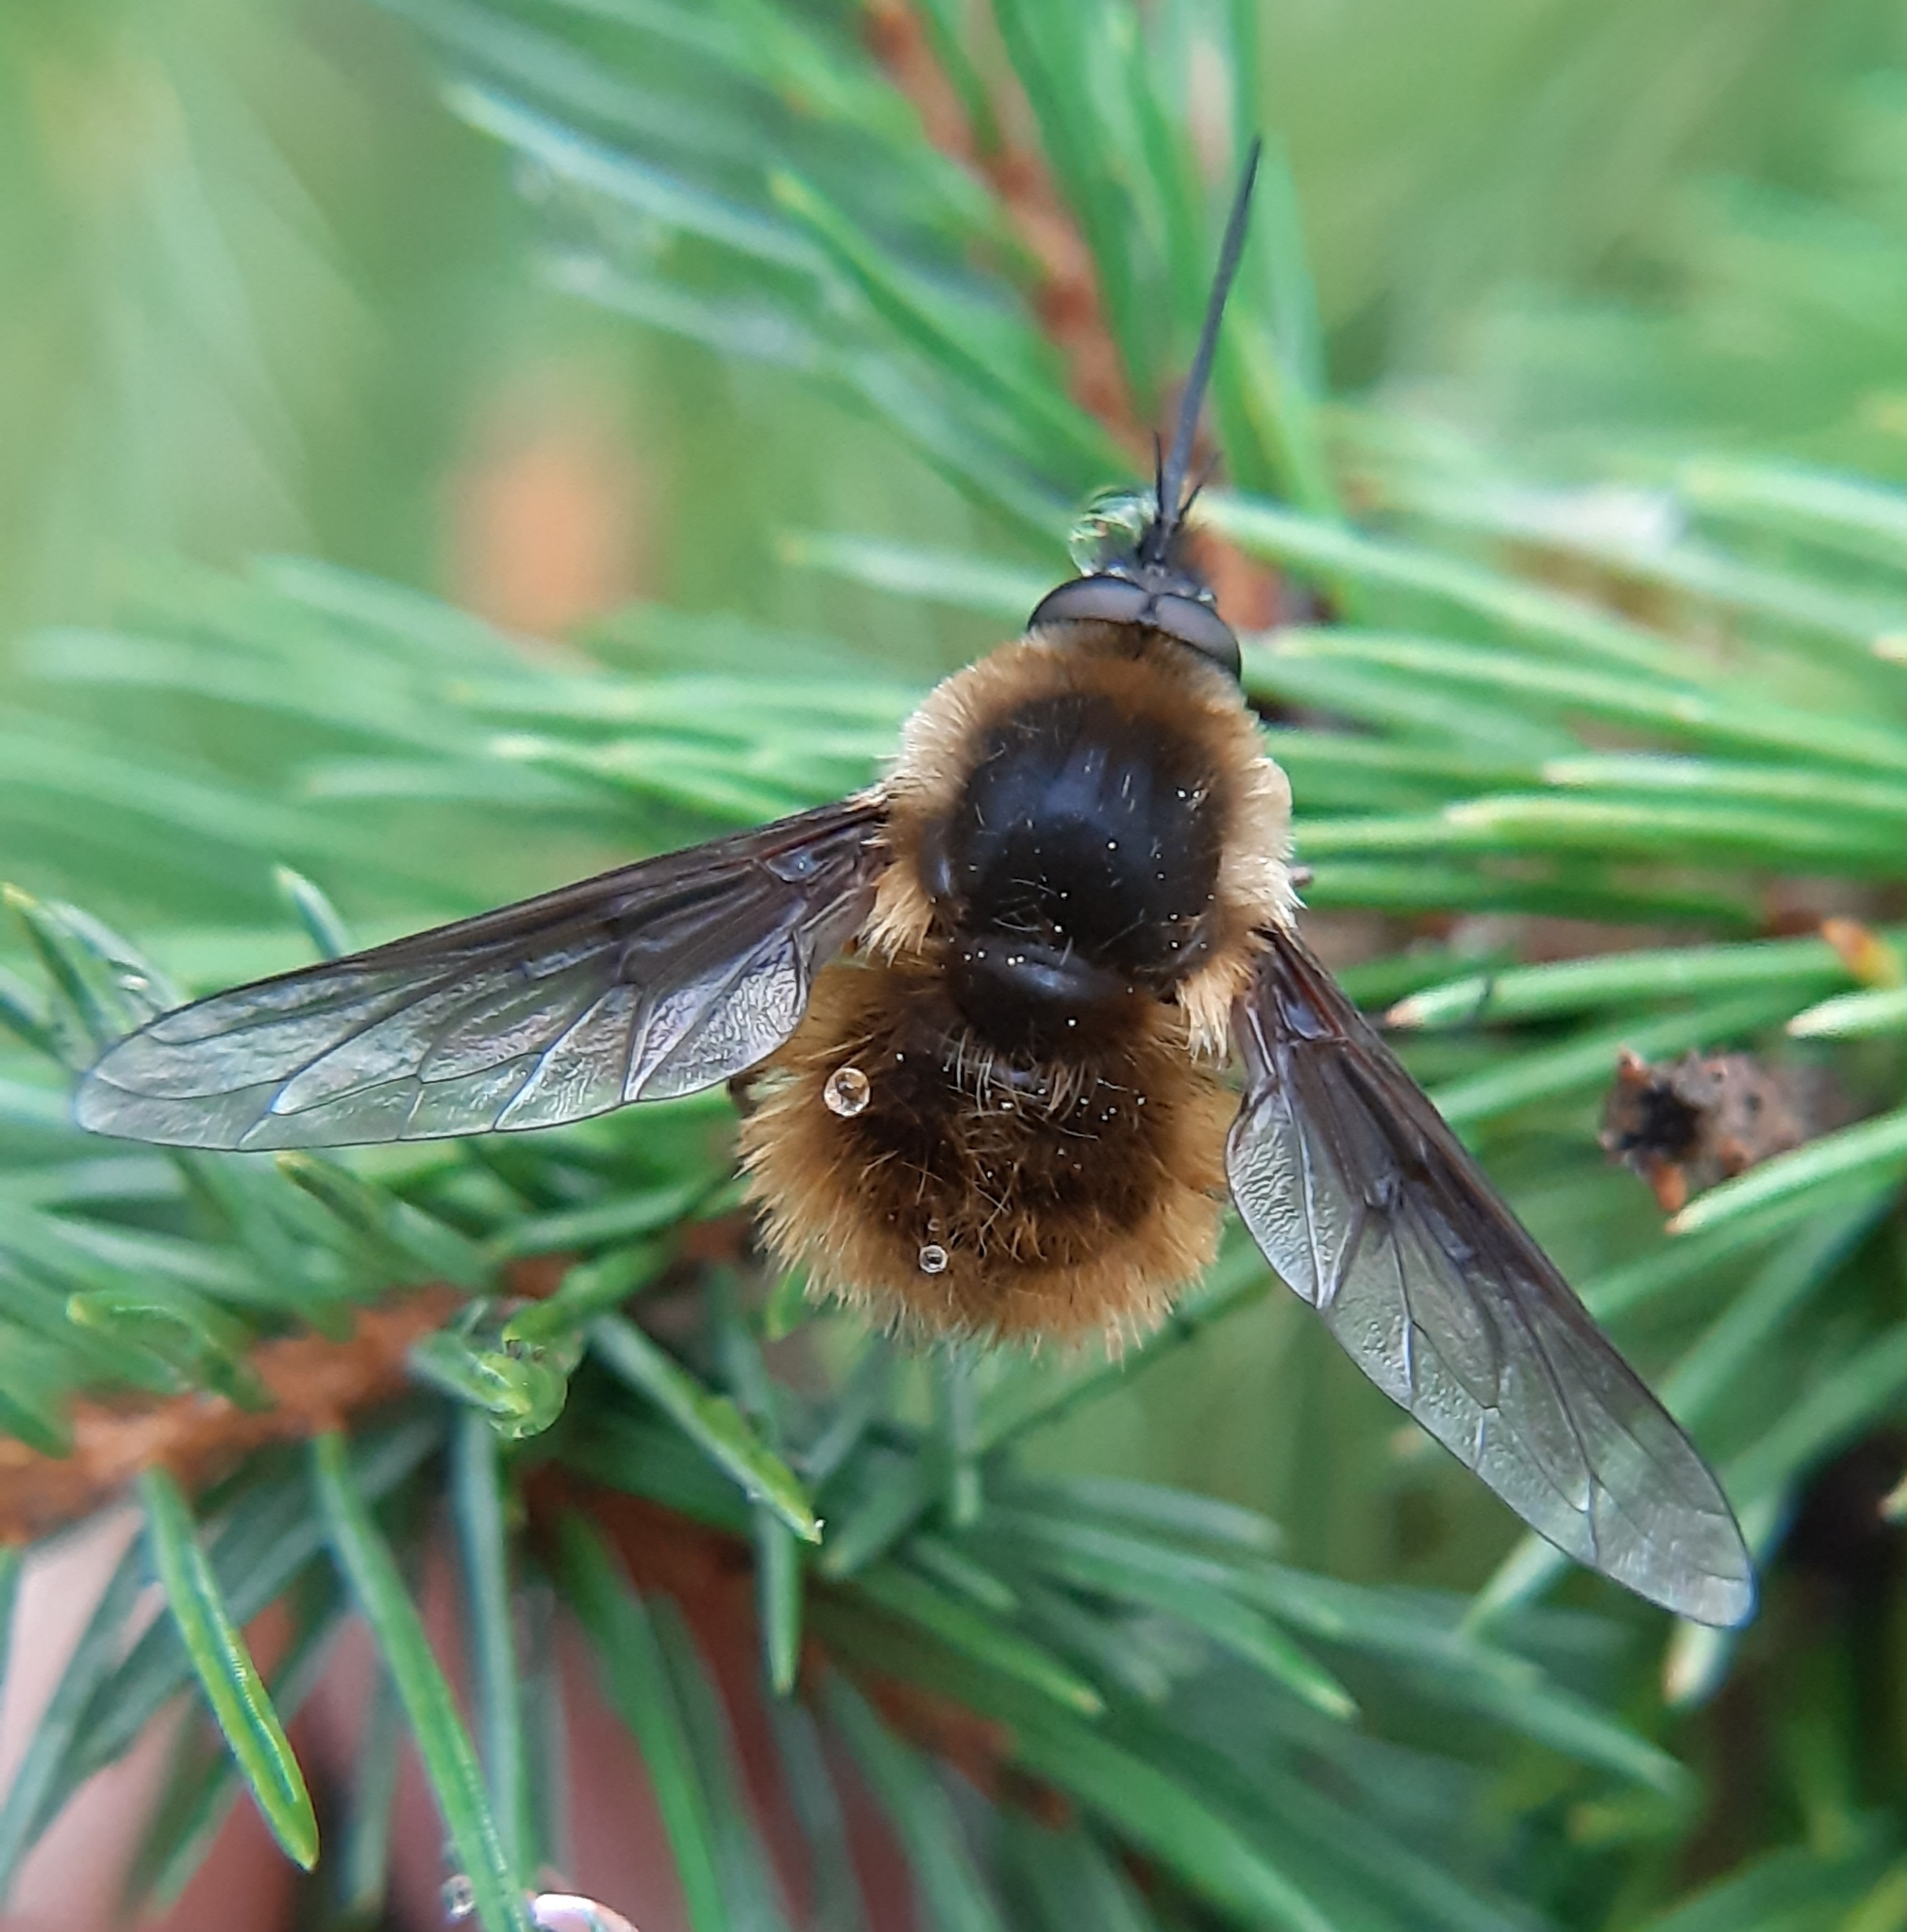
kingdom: Animalia
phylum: Arthropoda
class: Insecta
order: Diptera
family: Bombyliidae
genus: Bombylius
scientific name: Bombylius mexicanus
